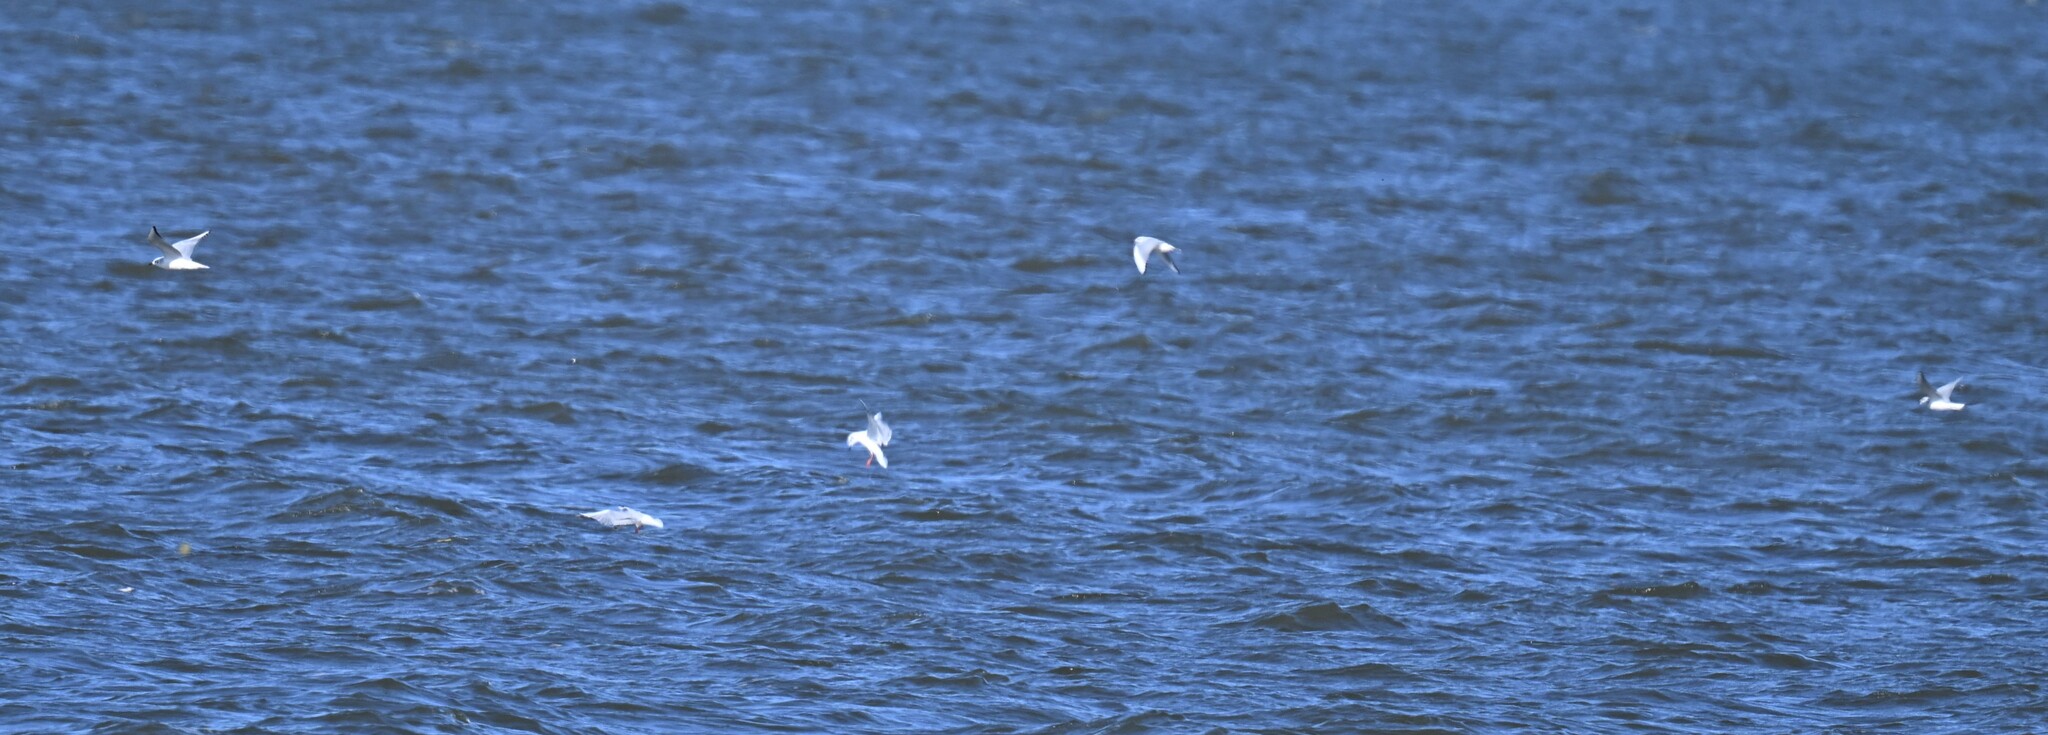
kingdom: Animalia
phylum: Chordata
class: Aves
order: Charadriiformes
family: Laridae
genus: Chroicocephalus
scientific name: Chroicocephalus philadelphia
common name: Bonaparte's gull
